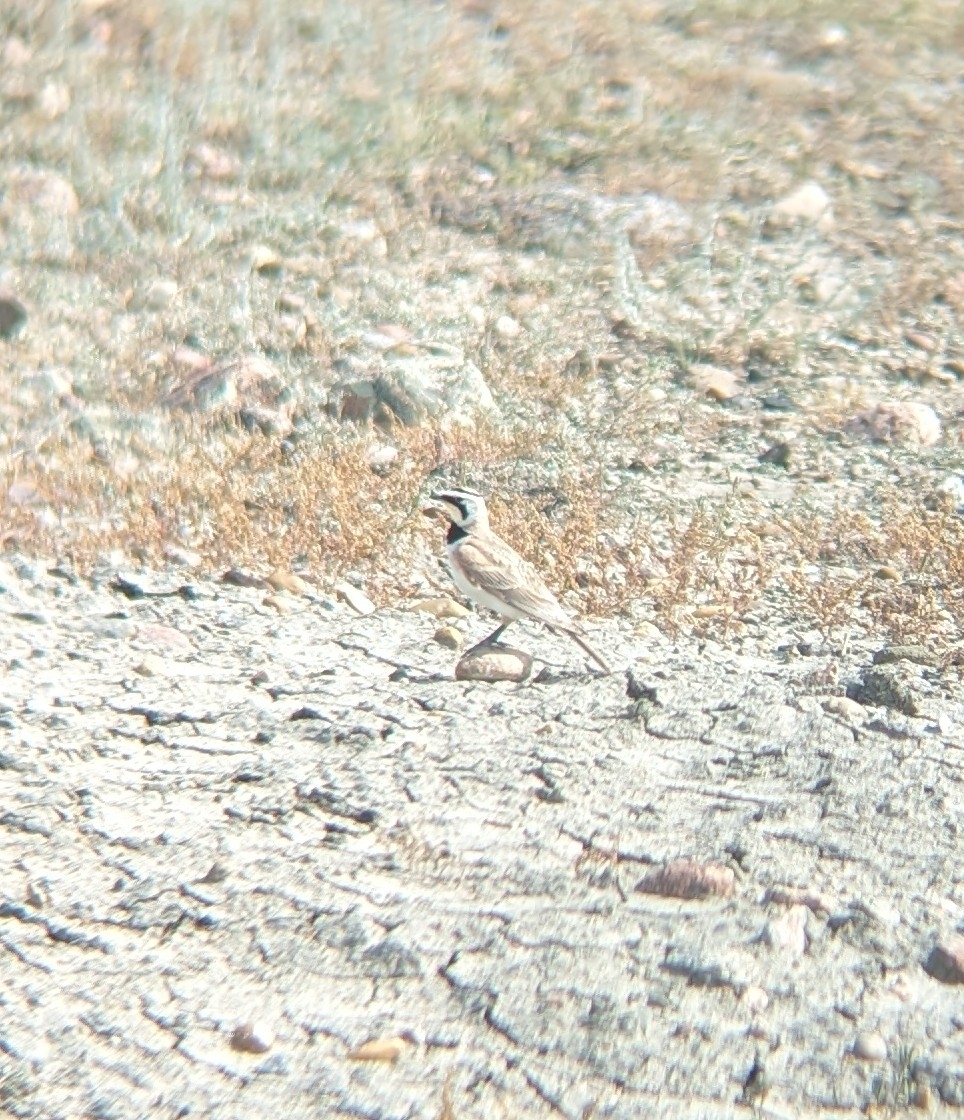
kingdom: Animalia
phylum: Chordata
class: Aves
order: Passeriformes
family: Alaudidae
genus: Eremophila
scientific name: Eremophila alpestris
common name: Horned lark
